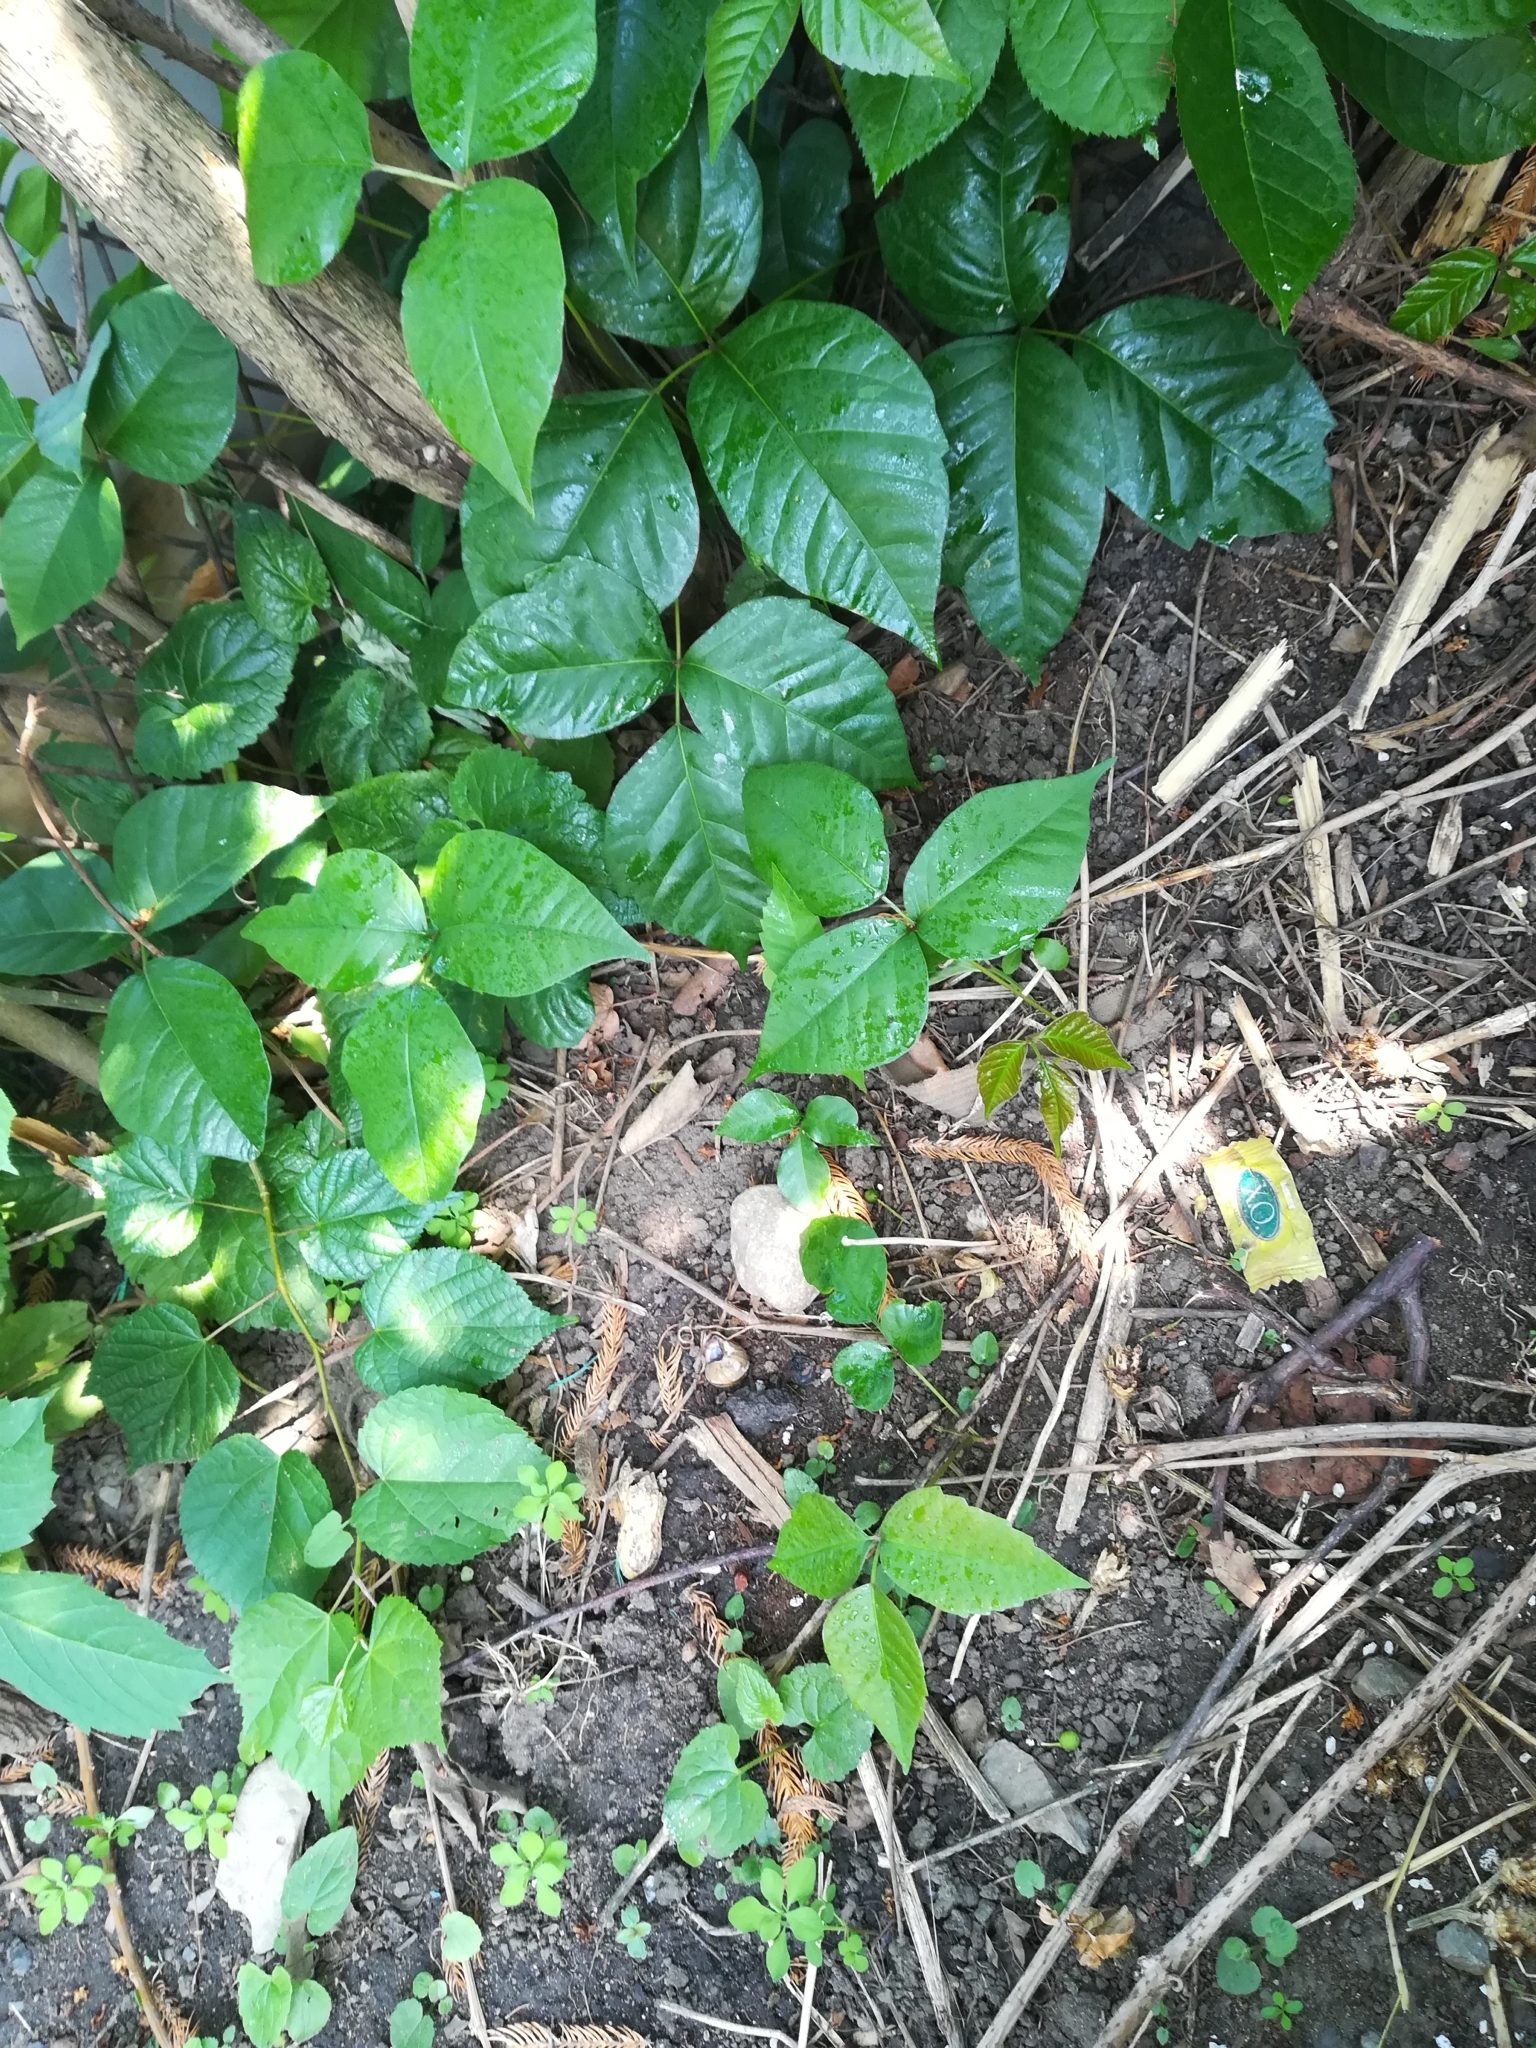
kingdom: Plantae
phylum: Tracheophyta
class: Magnoliopsida
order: Sapindales
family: Anacardiaceae
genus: Toxicodendron
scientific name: Toxicodendron radicans
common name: Poison ivy
